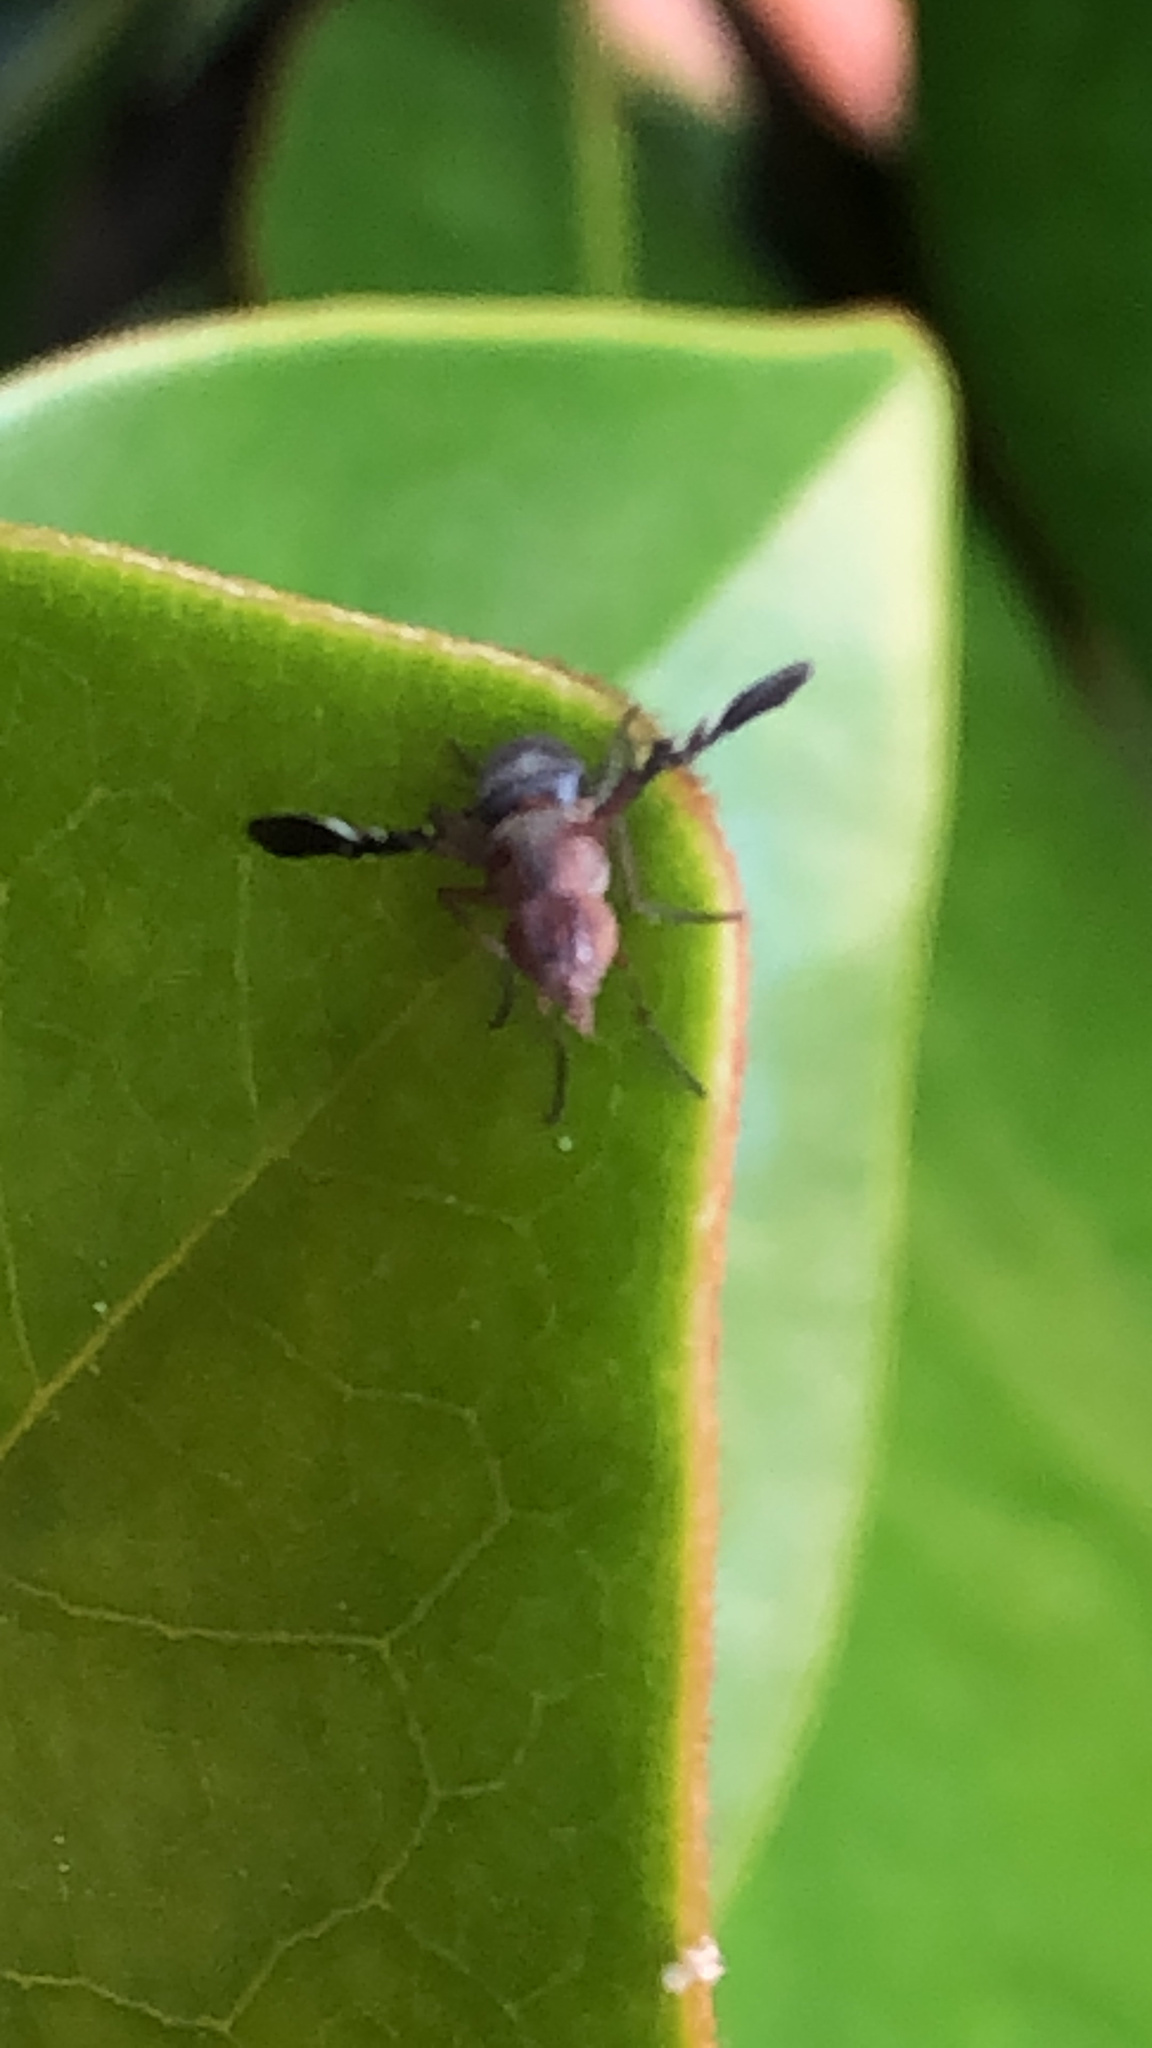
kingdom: Animalia
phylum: Arthropoda
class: Insecta
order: Diptera
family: Ulidiidae
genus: Delphinia
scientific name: Delphinia picta
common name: Common picture-winged fly
